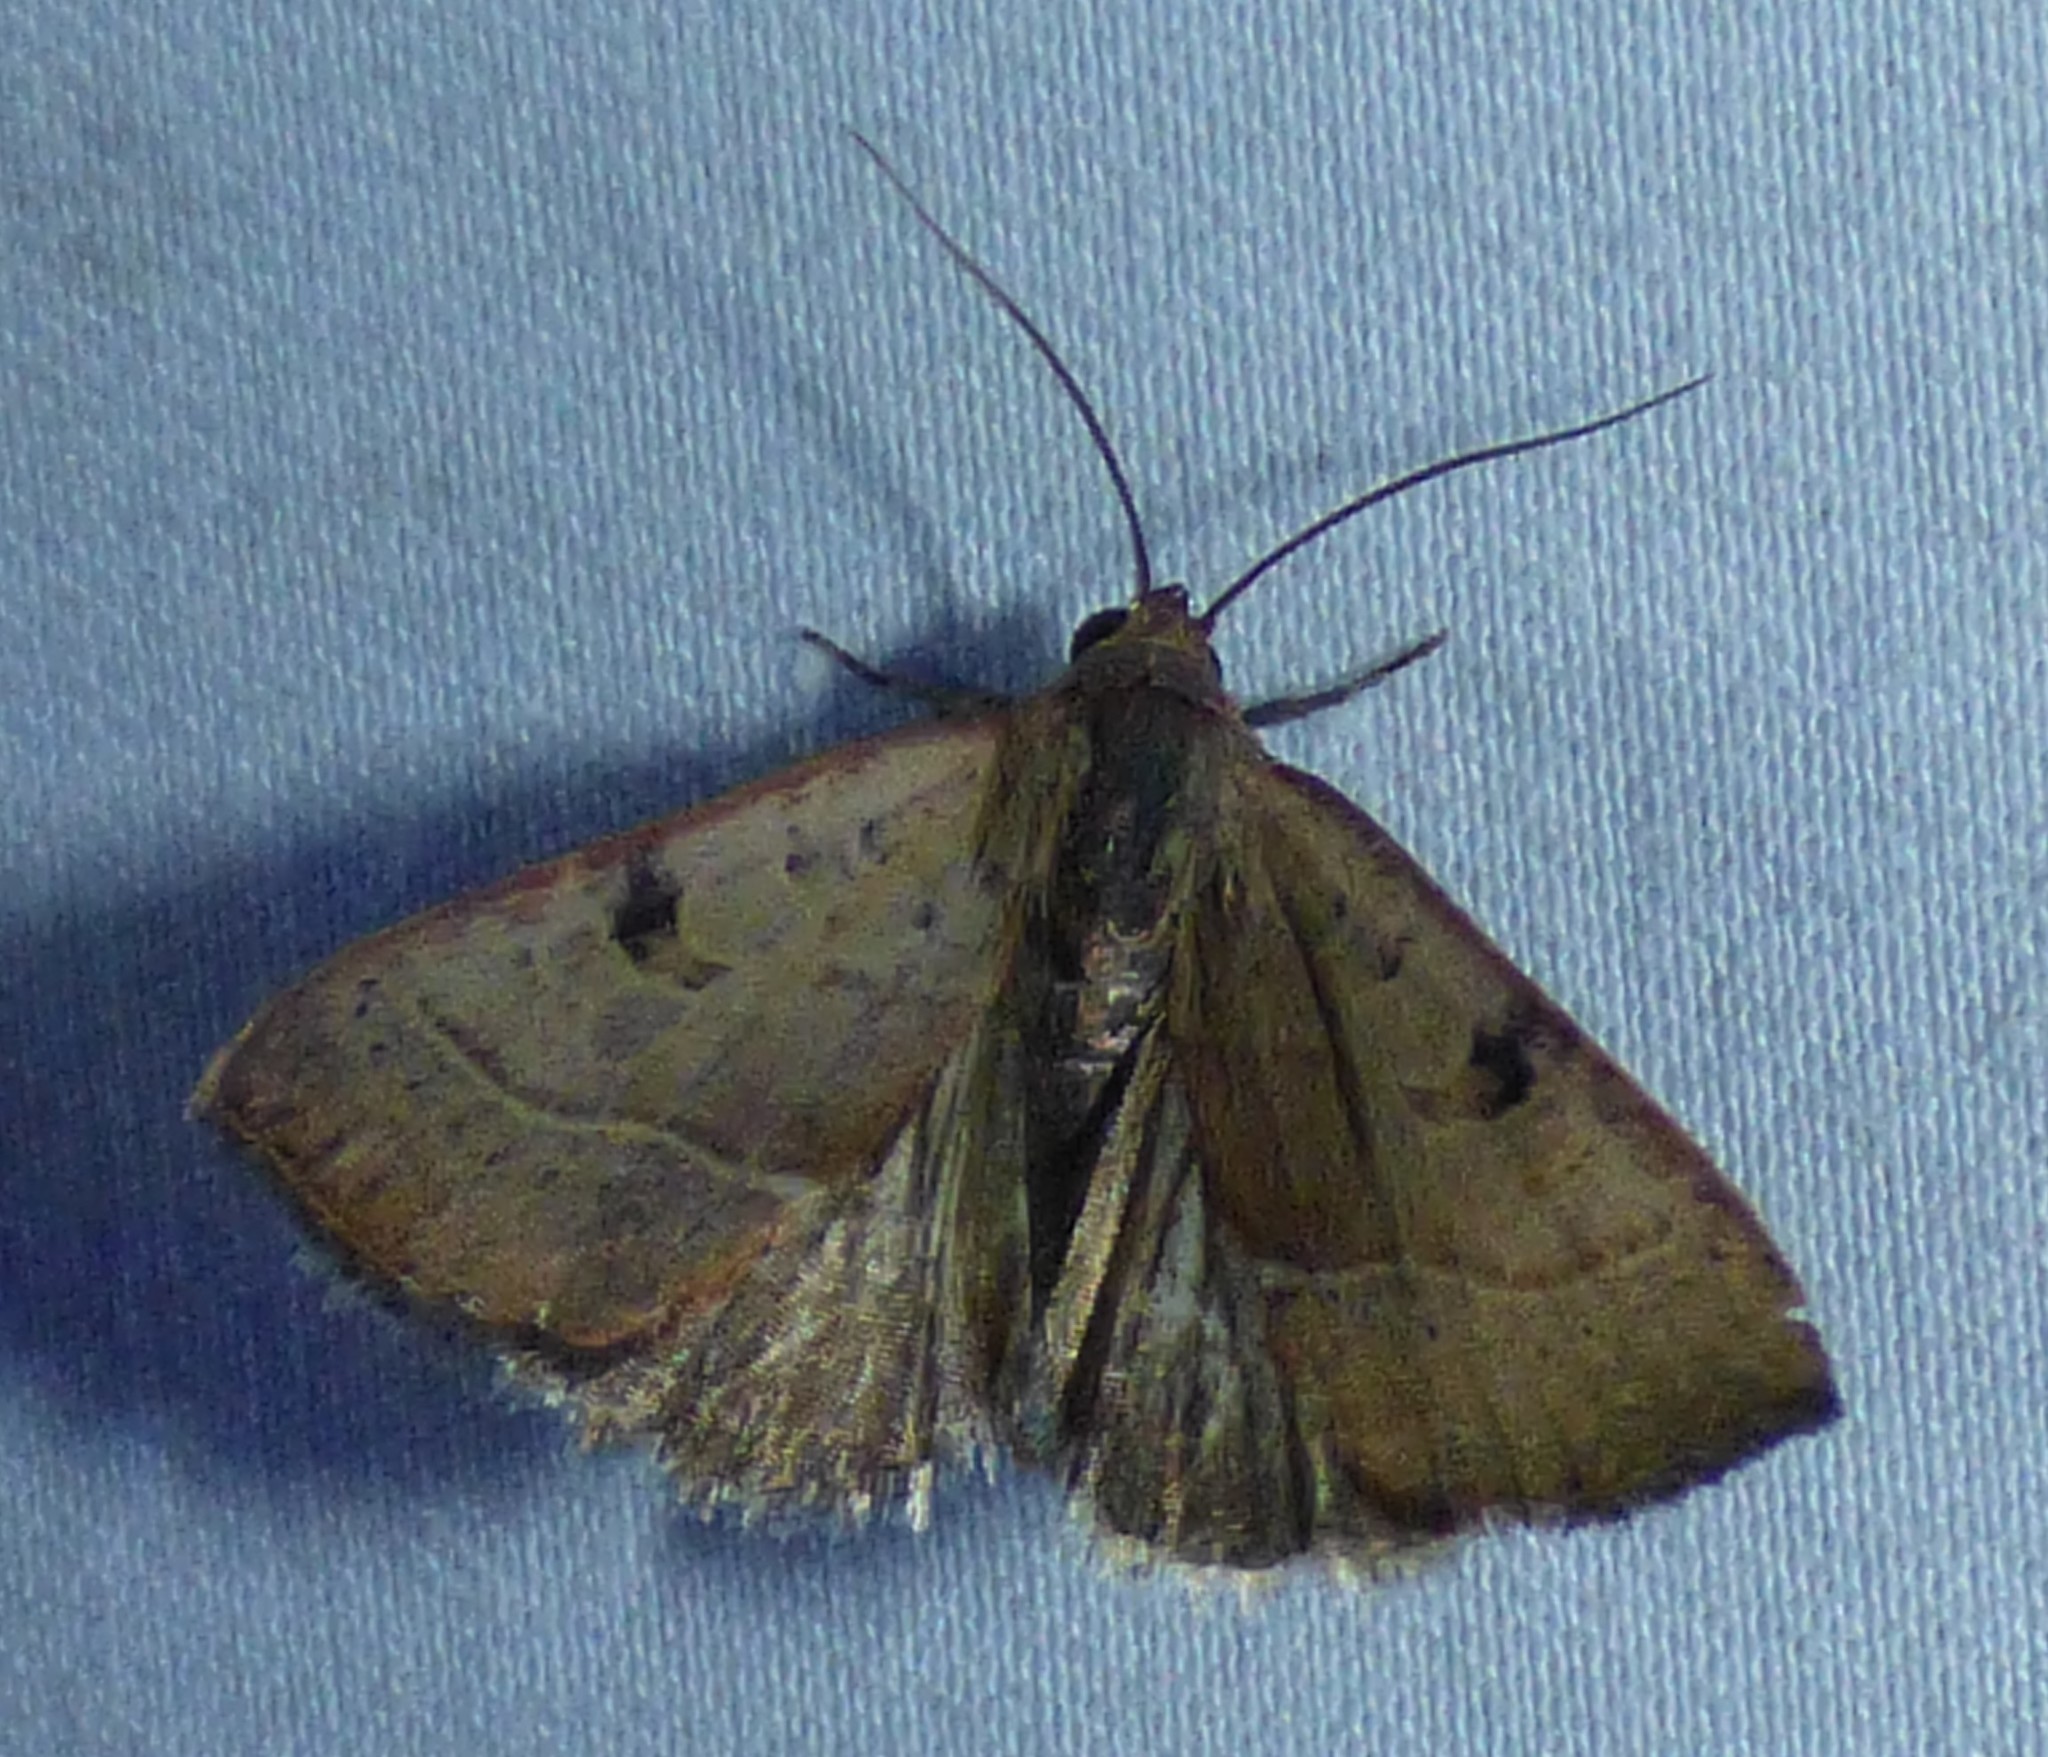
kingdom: Animalia
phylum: Arthropoda
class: Insecta
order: Lepidoptera
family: Noctuidae
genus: Galgula
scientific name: Galgula partita
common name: Wedgeling
